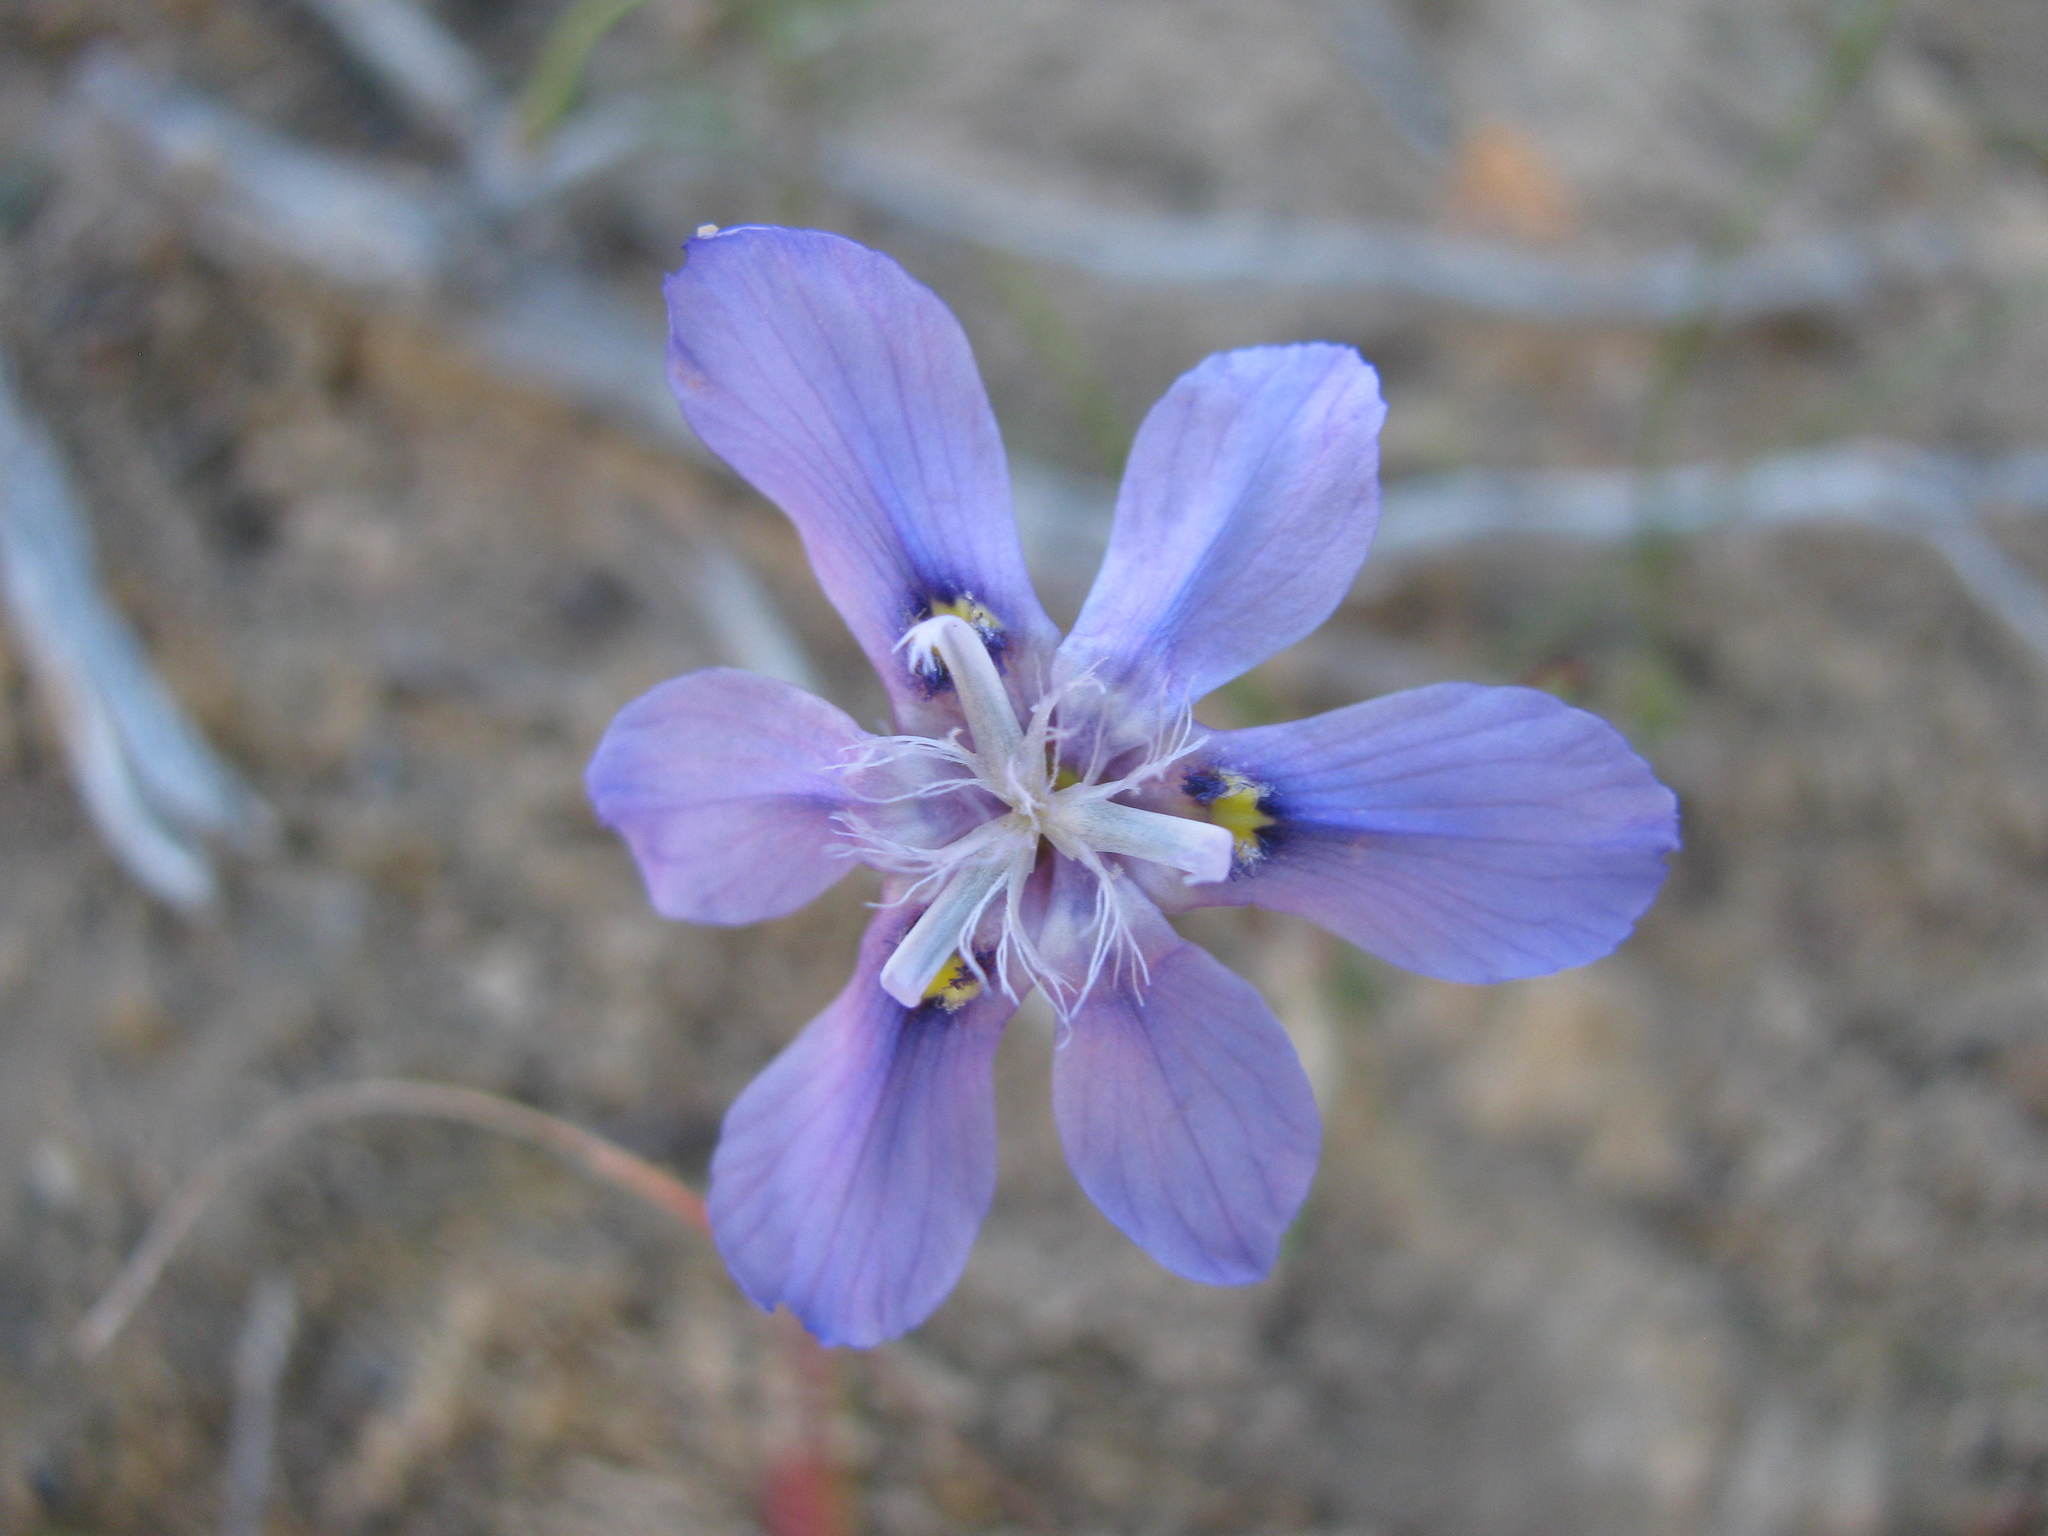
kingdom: Plantae
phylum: Tracheophyta
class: Liliopsida
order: Asparagales
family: Iridaceae
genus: Moraea
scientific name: Moraea lugubris
